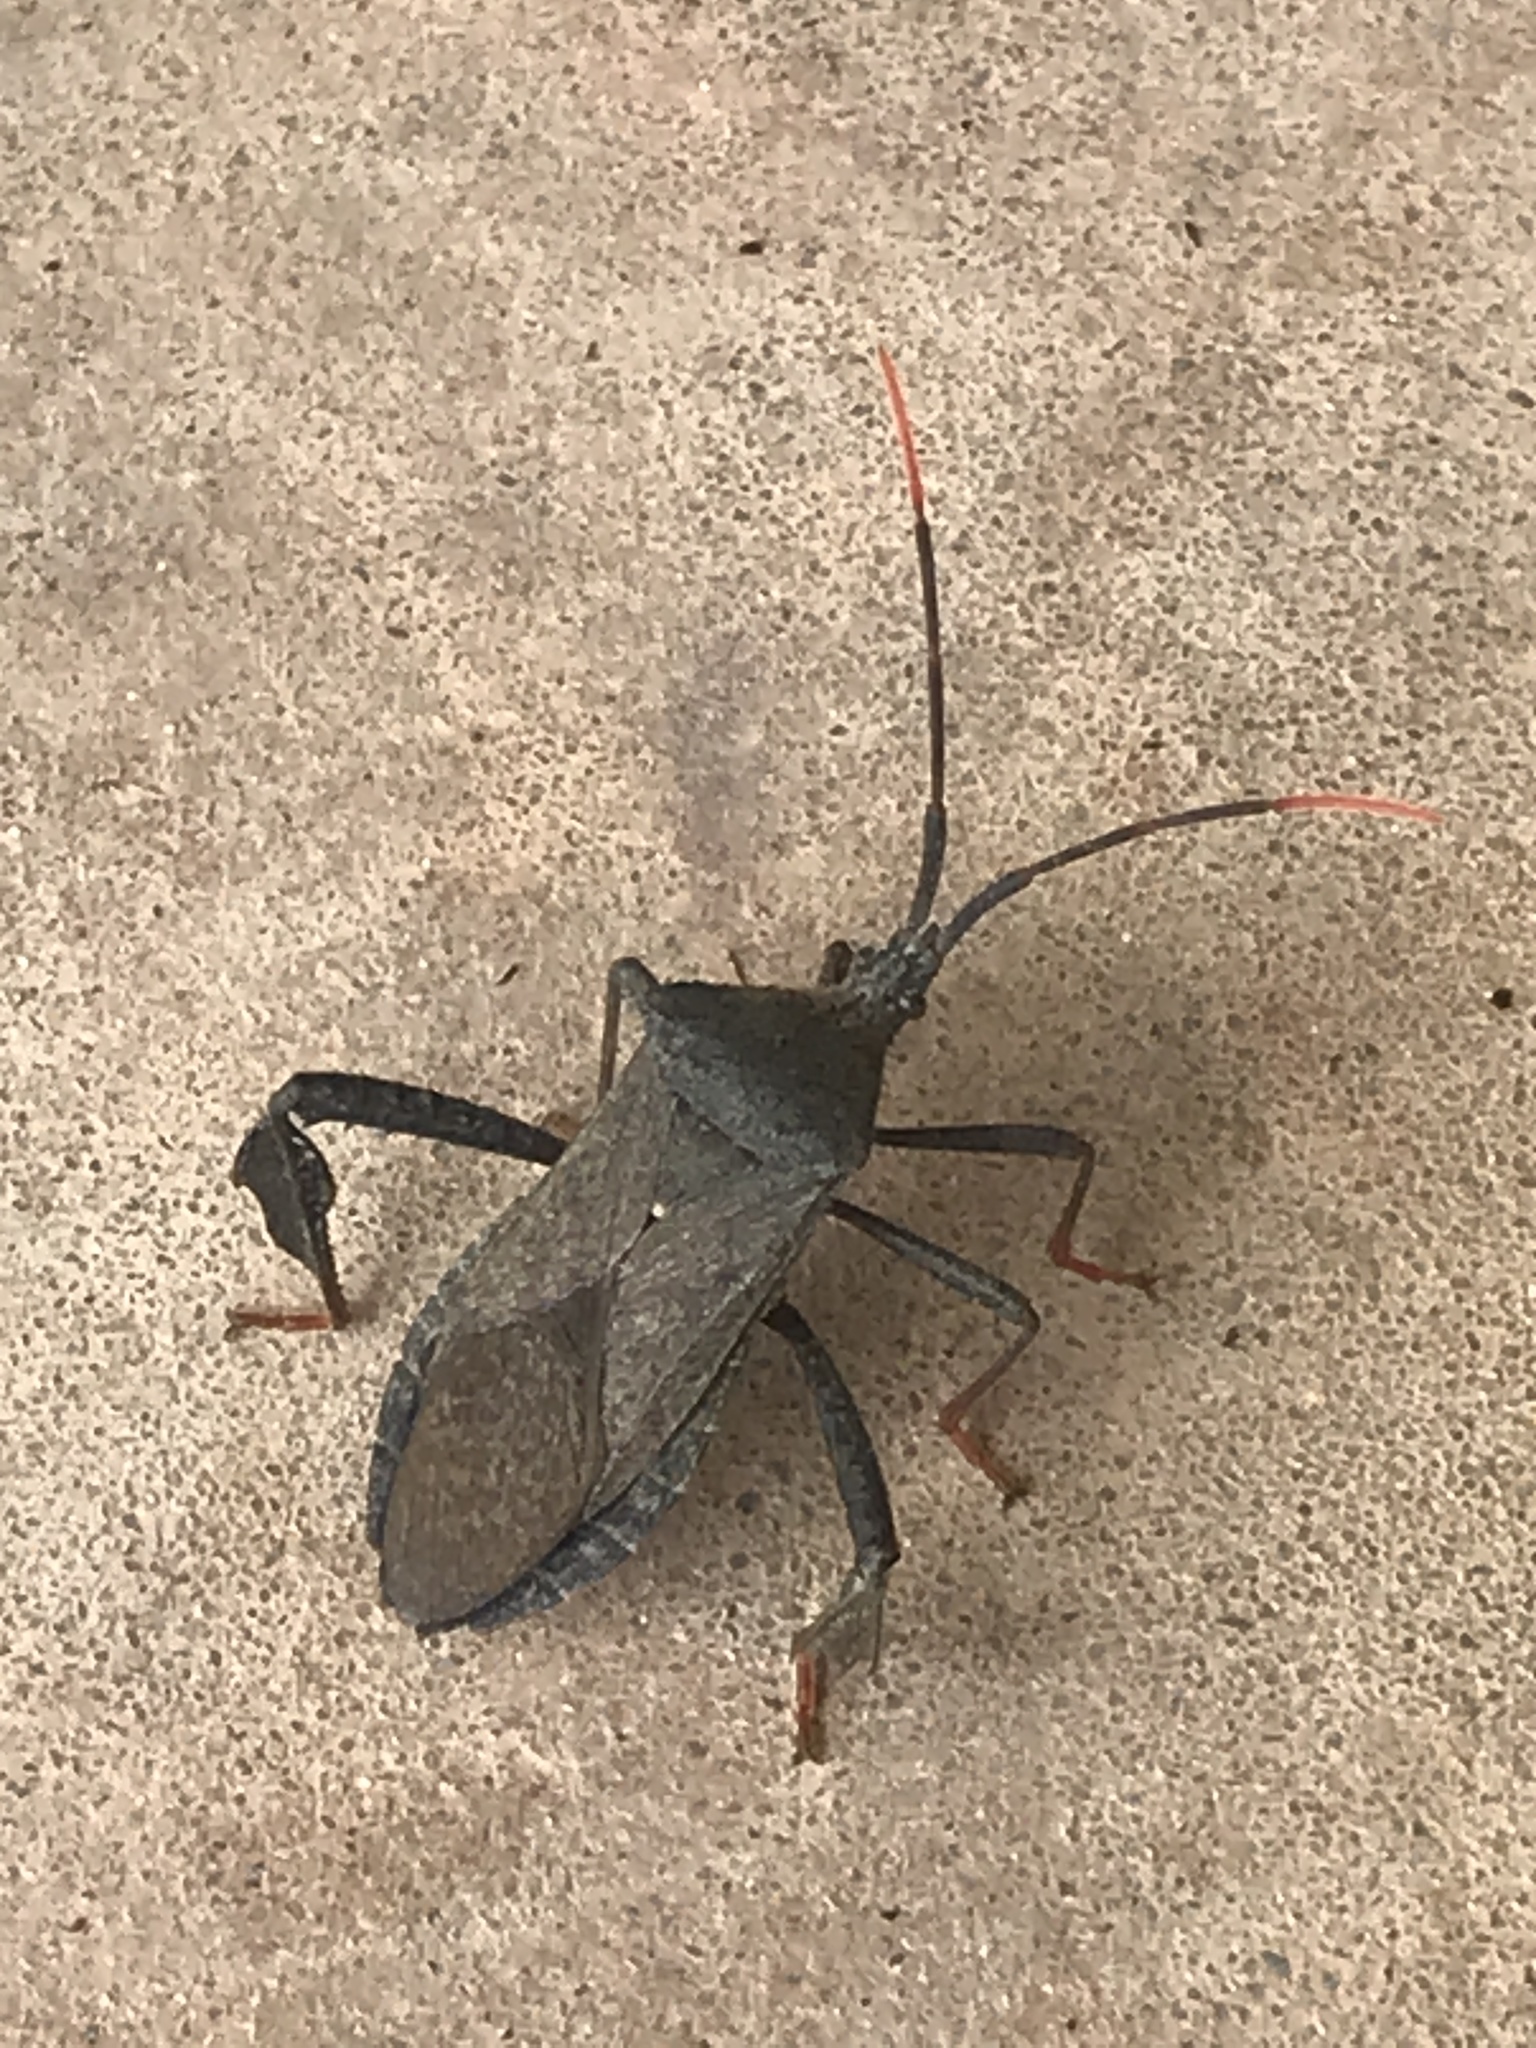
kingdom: Animalia
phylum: Arthropoda
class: Insecta
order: Hemiptera
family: Coreidae
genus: Acanthocephala
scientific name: Acanthocephala terminalis
